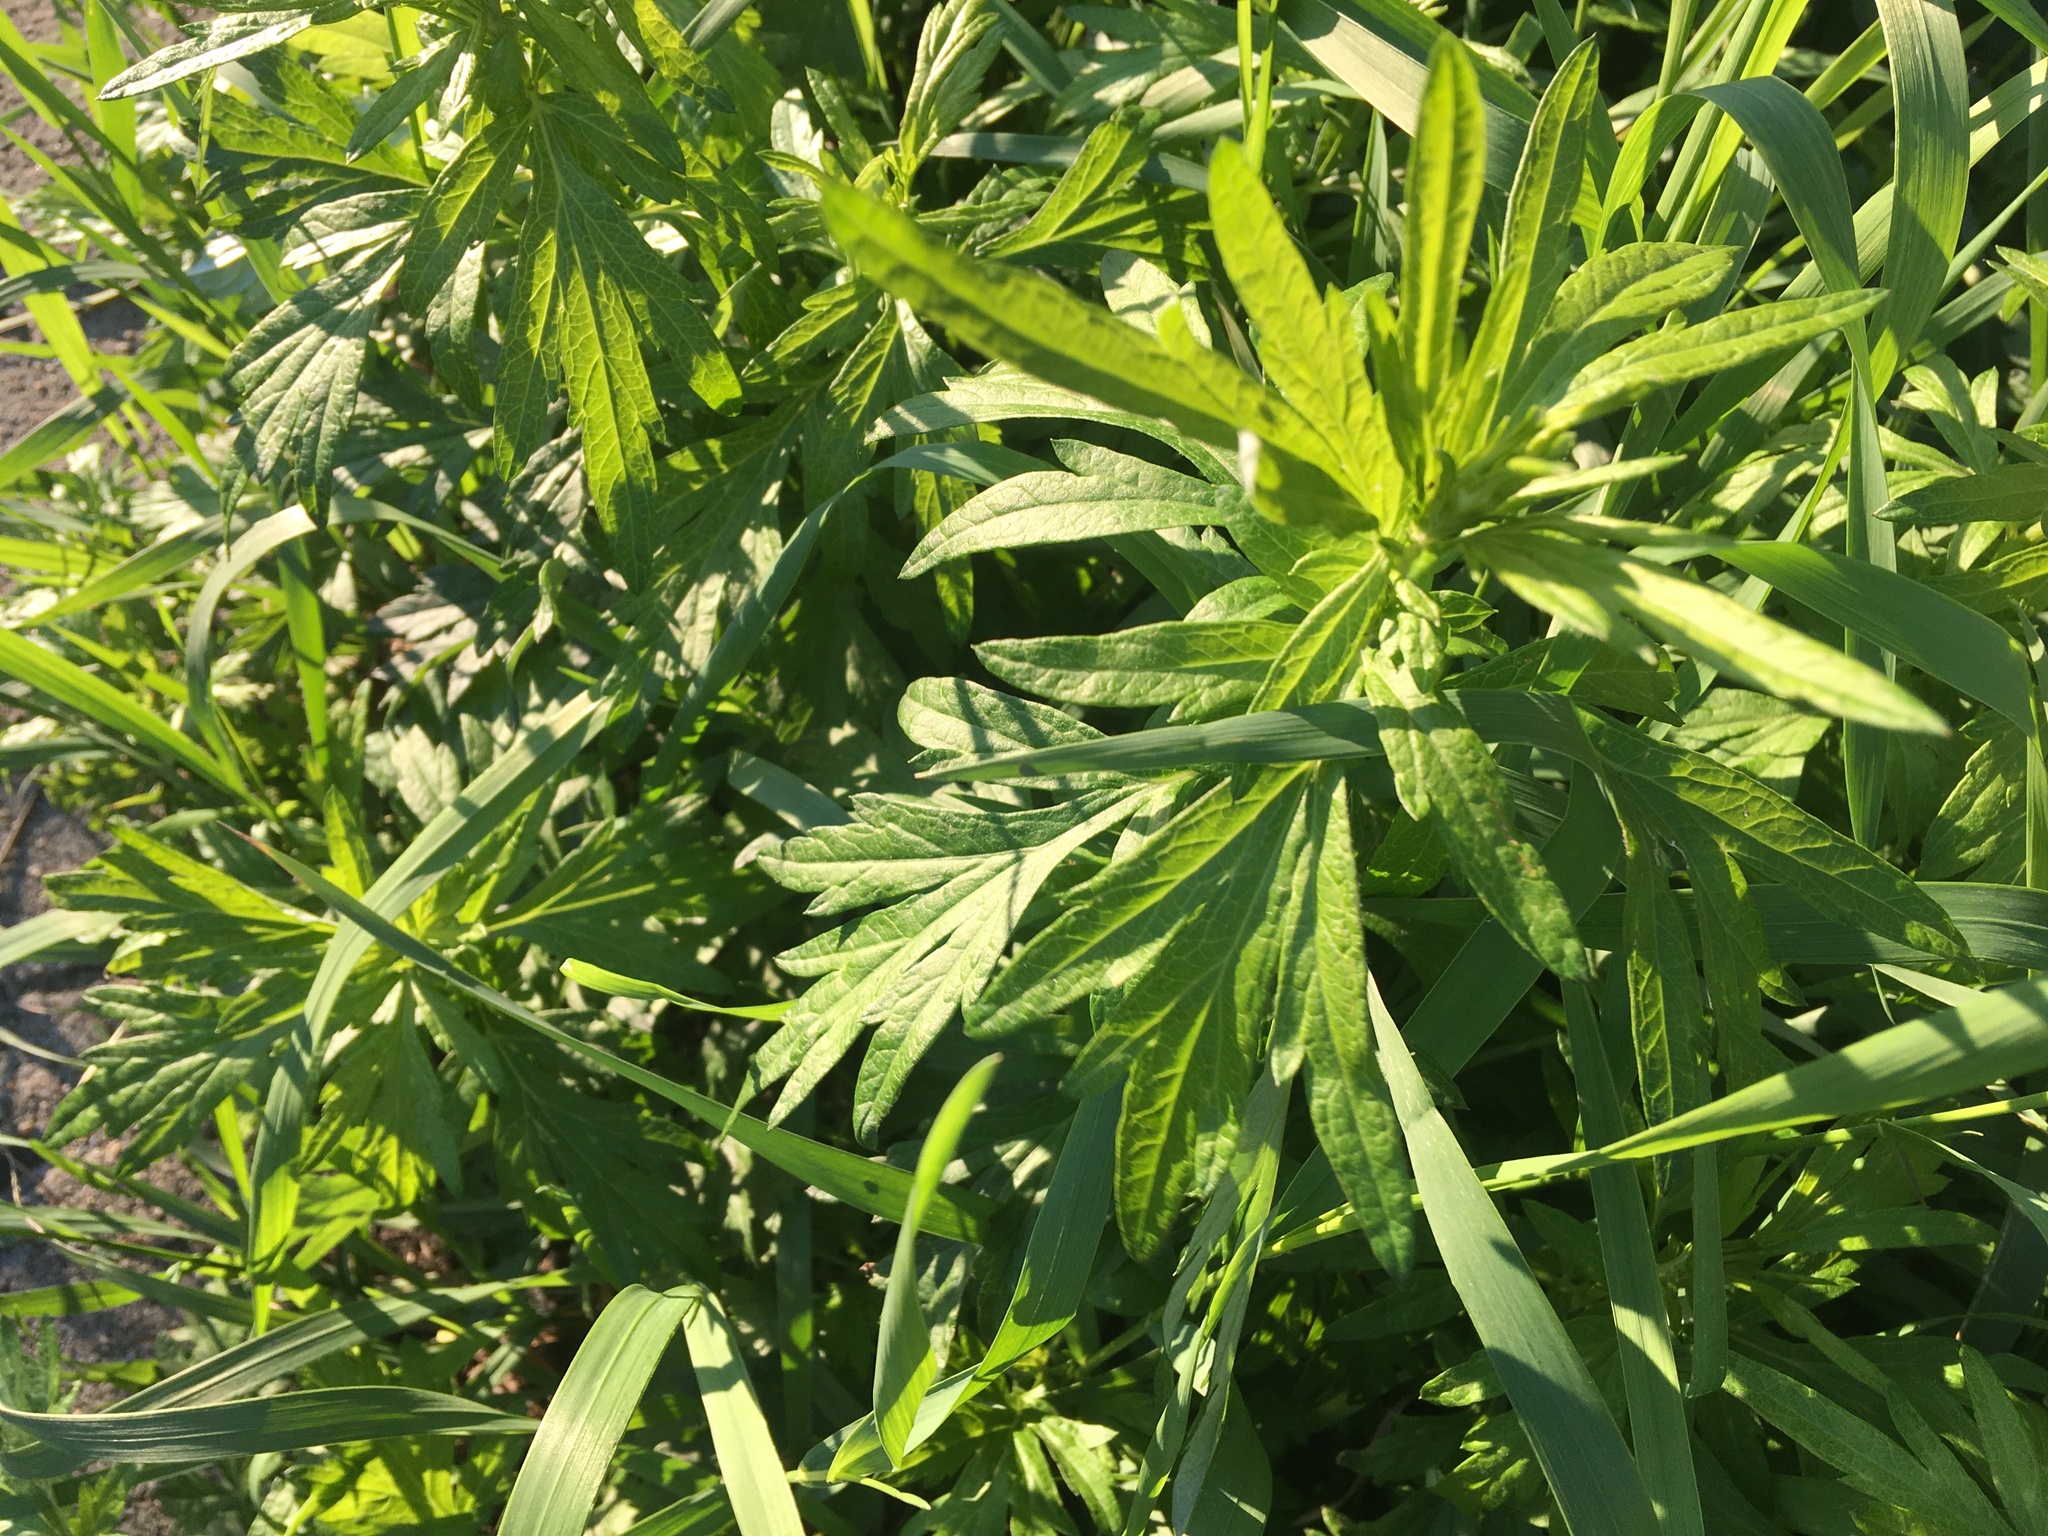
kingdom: Plantae
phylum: Tracheophyta
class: Magnoliopsida
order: Asterales
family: Asteraceae
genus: Artemisia
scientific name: Artemisia vulgaris
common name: Mugwort
